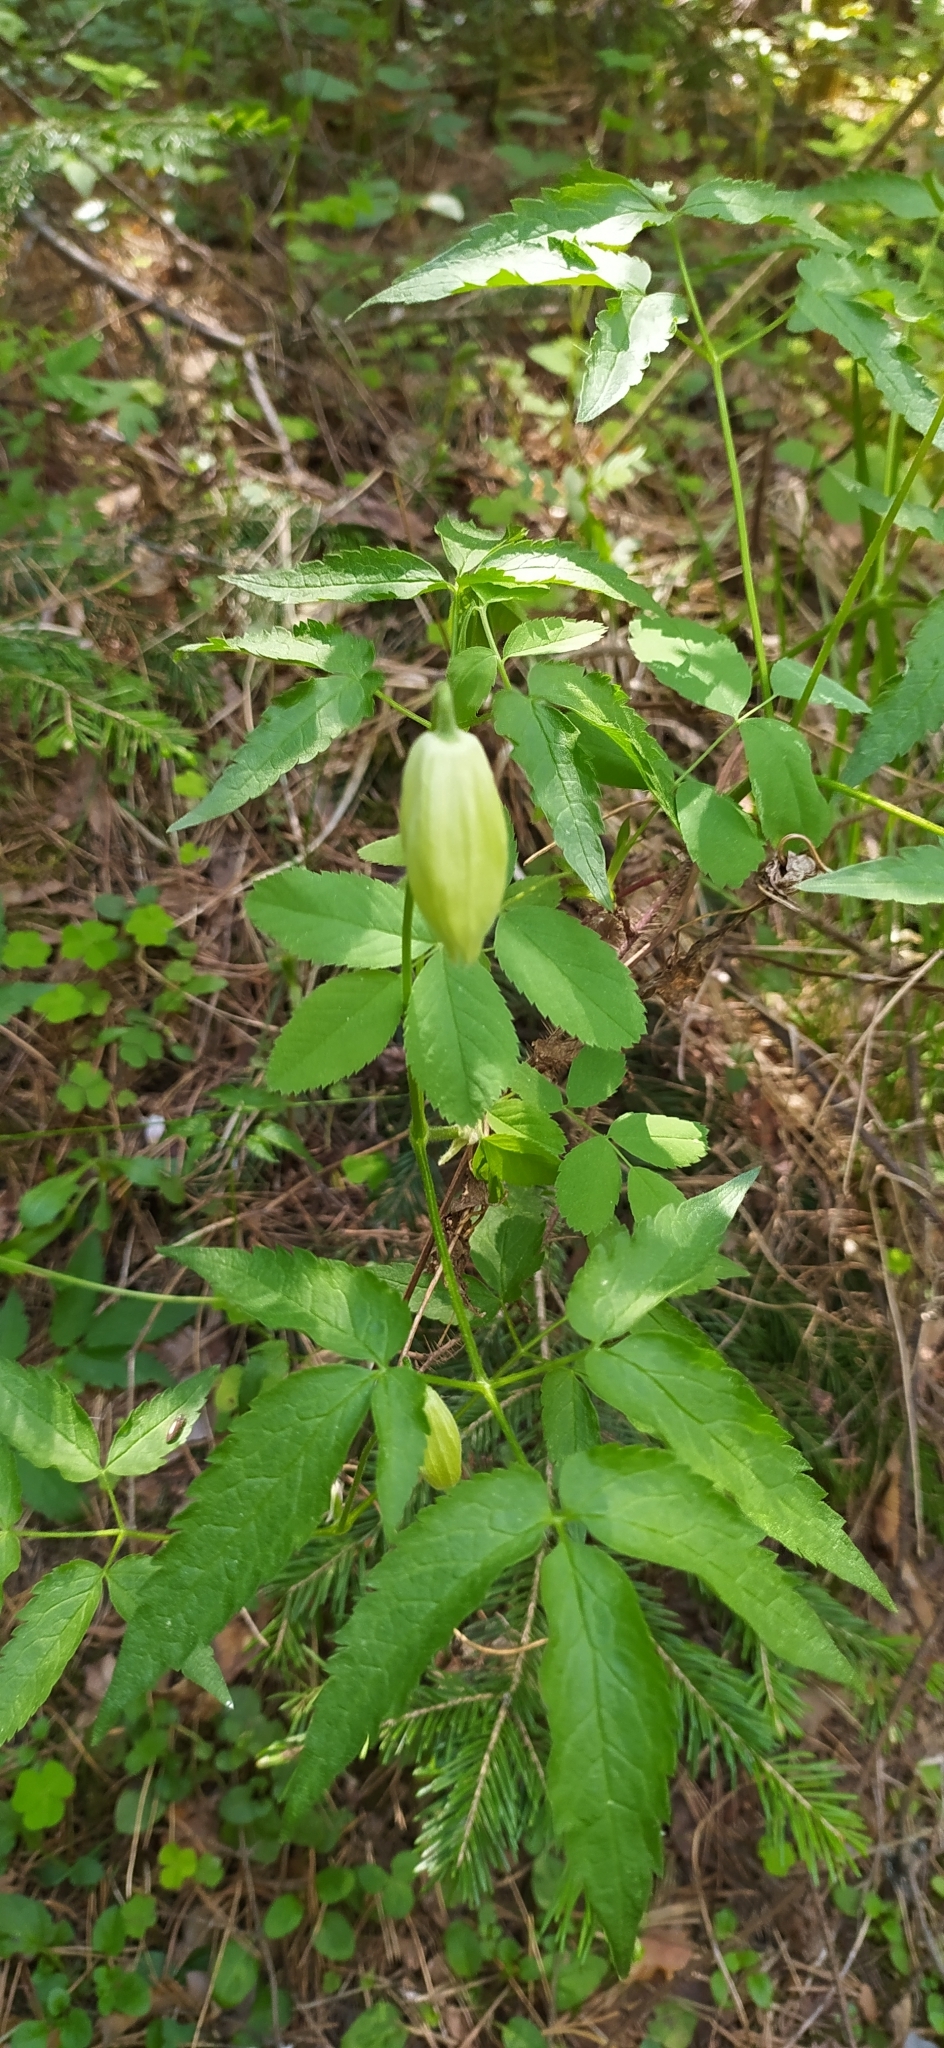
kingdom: Plantae
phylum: Tracheophyta
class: Magnoliopsida
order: Ranunculales
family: Ranunculaceae
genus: Clematis
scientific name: Clematis sibirica
